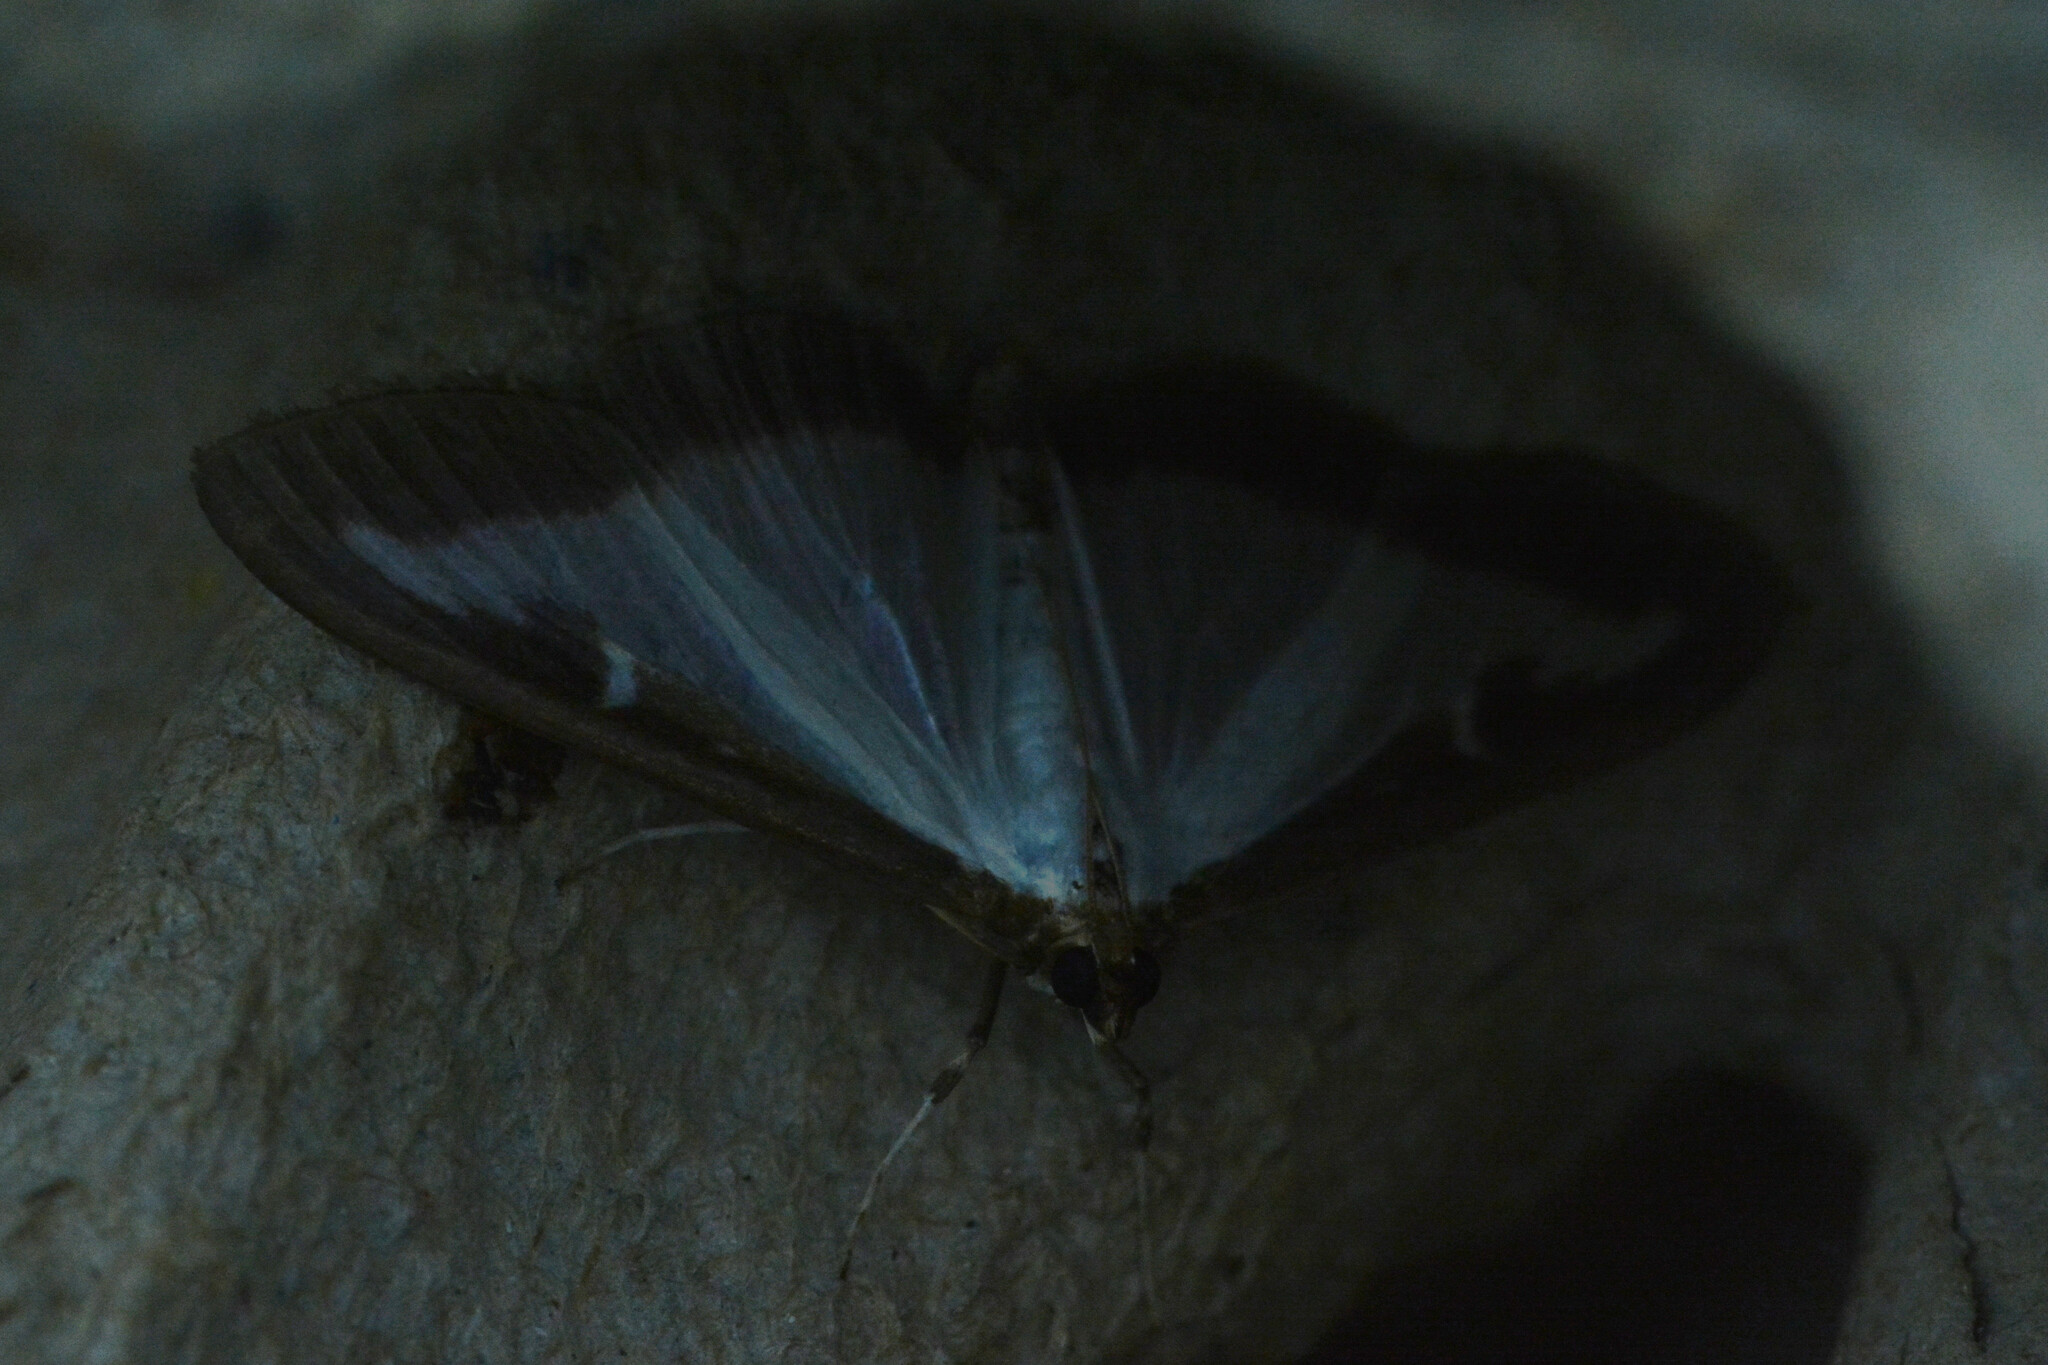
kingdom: Animalia
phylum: Arthropoda
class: Insecta
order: Lepidoptera
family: Crambidae
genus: Cydalima
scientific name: Cydalima perspectalis
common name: Box tree moth
